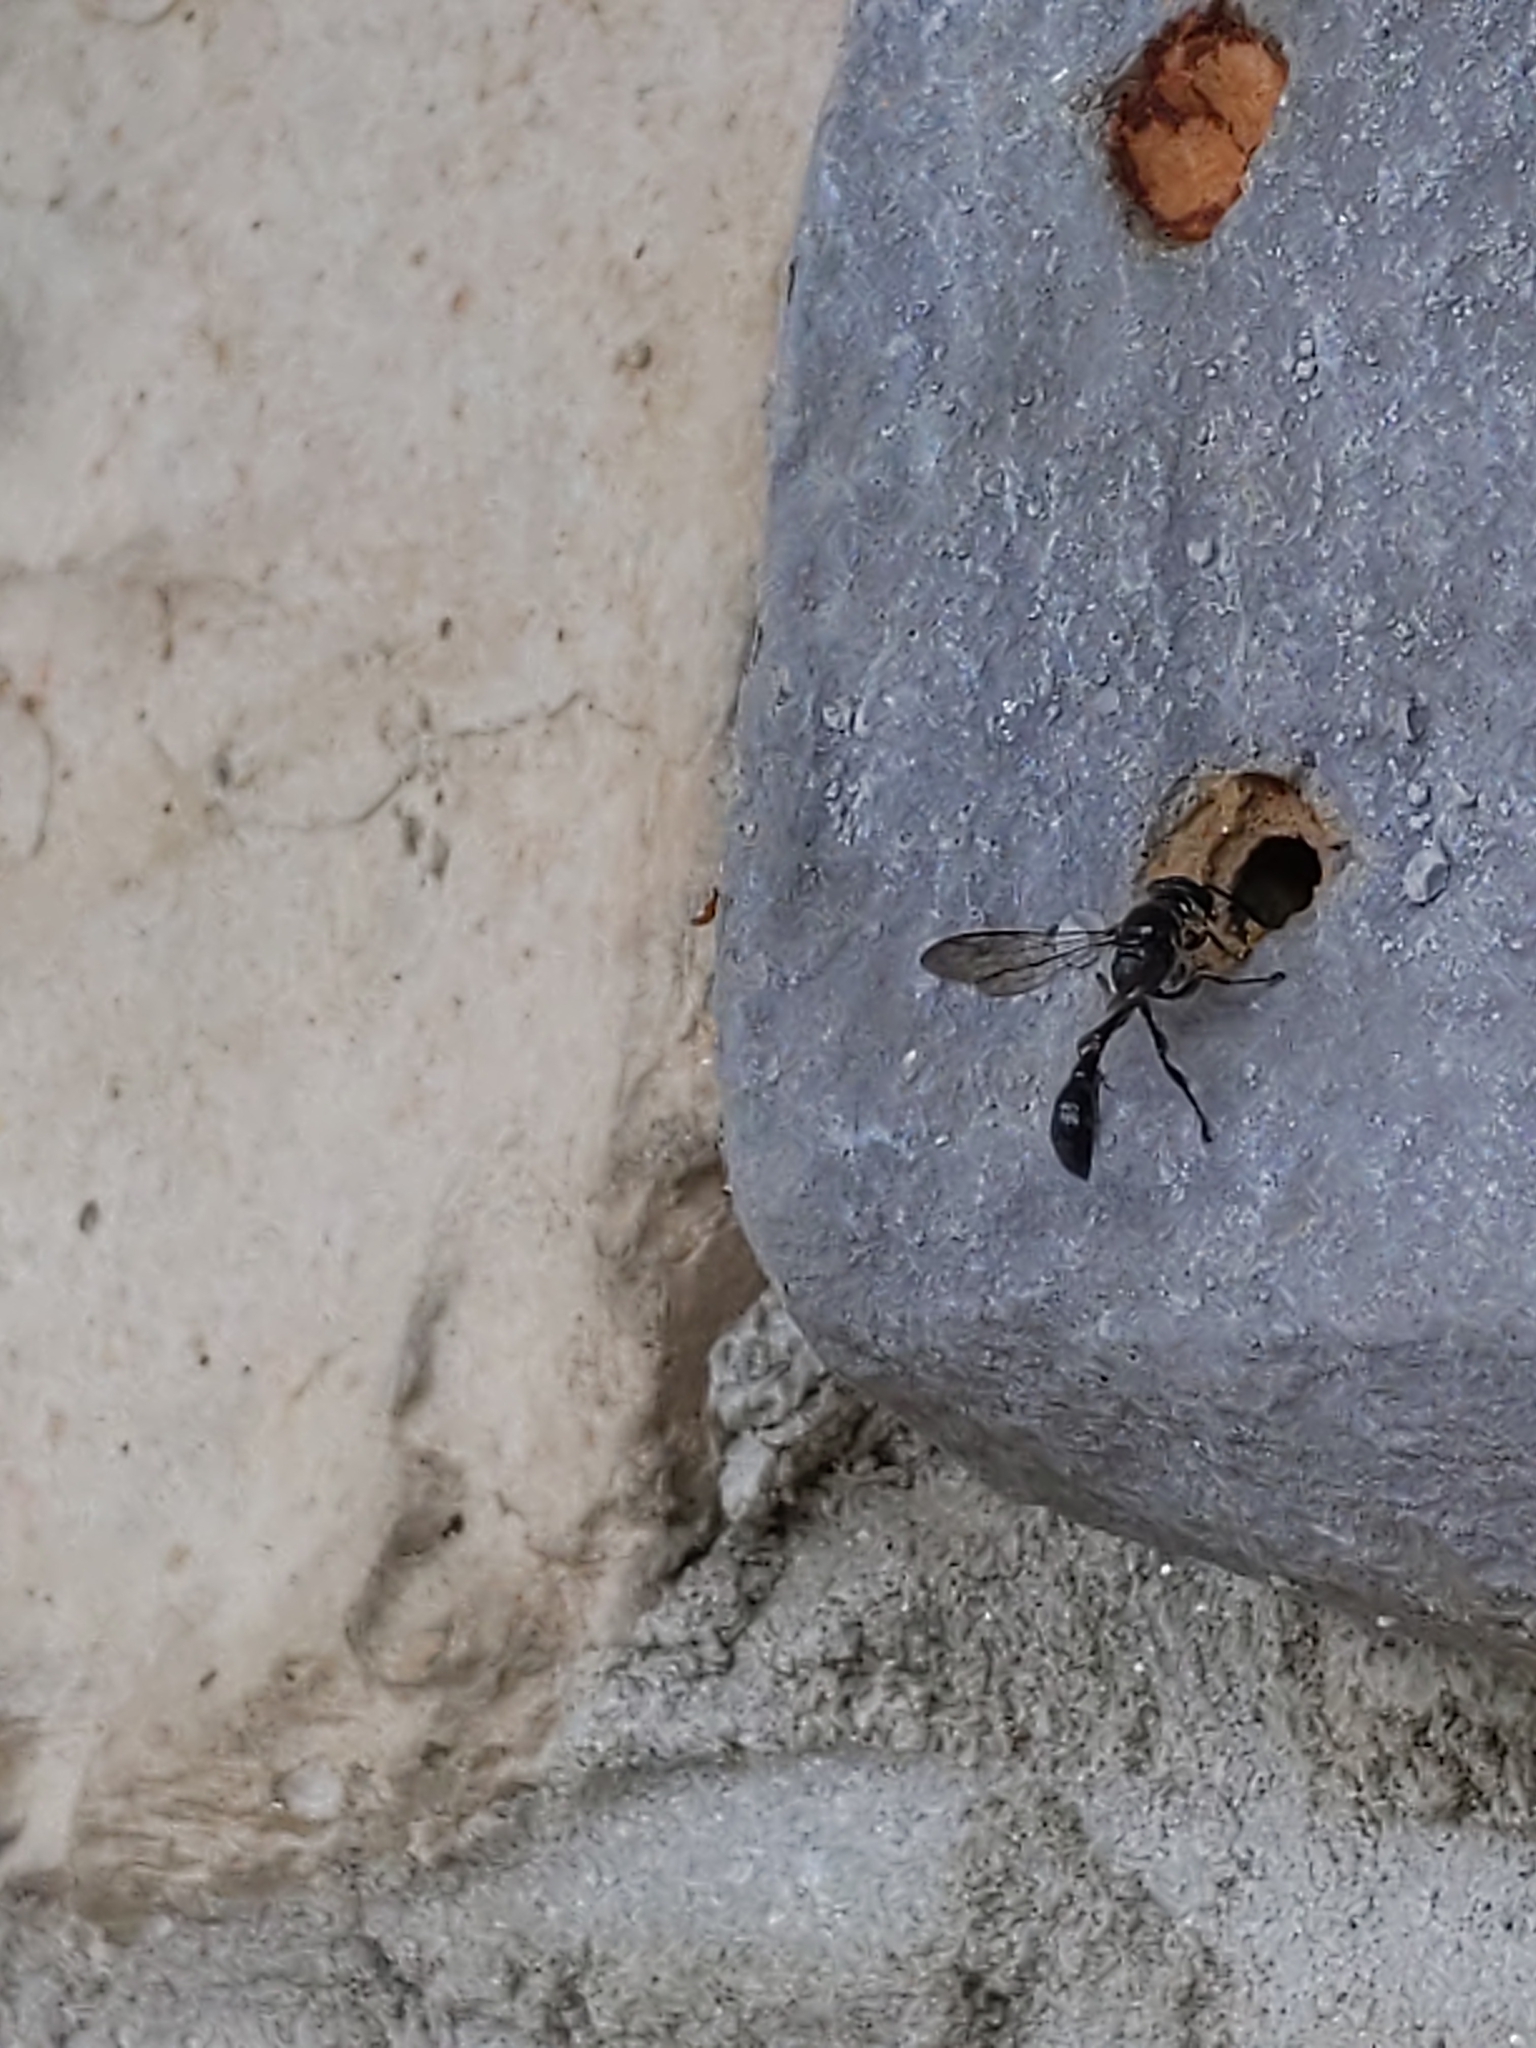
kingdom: Animalia
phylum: Arthropoda
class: Insecta
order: Hymenoptera
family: Crabronidae
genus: Trypoxylon
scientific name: Trypoxylon
